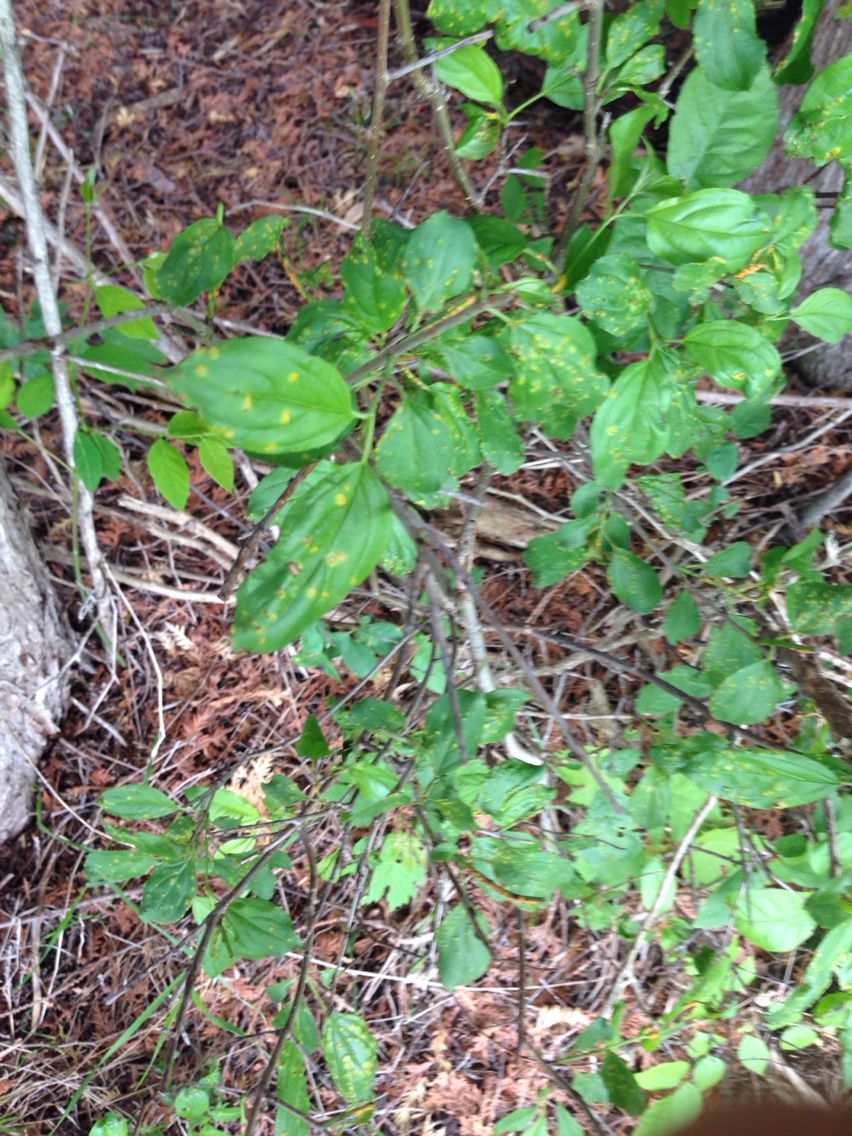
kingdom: Plantae
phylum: Tracheophyta
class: Magnoliopsida
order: Rosales
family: Rhamnaceae
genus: Rhamnus
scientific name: Rhamnus cathartica
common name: Common buckthorn
